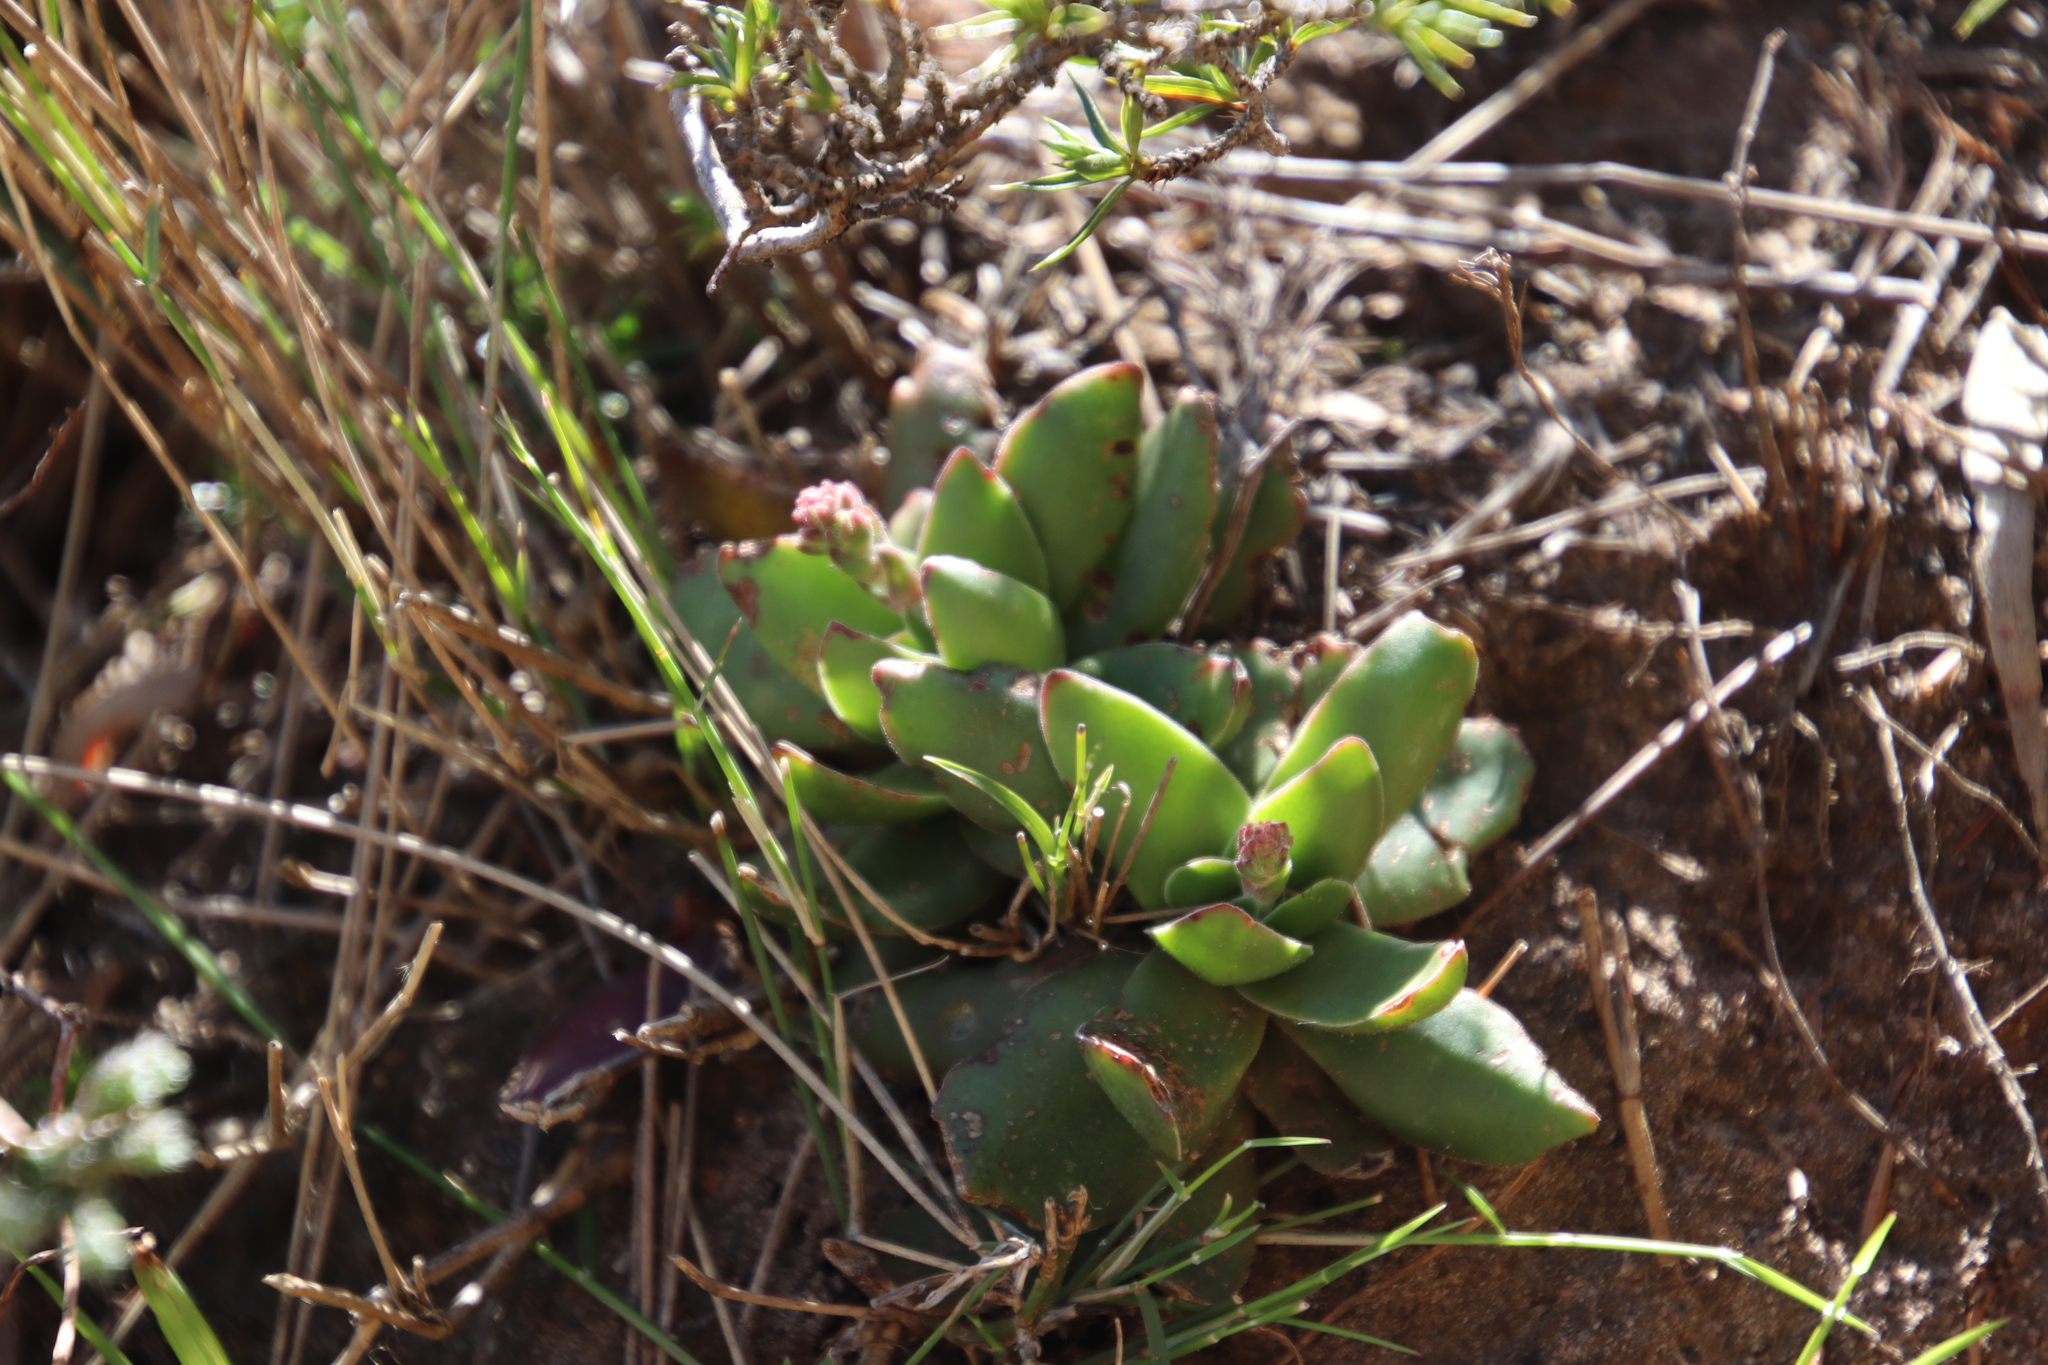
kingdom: Plantae
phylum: Tracheophyta
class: Magnoliopsida
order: Saxifragales
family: Crassulaceae
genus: Crassula
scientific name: Crassula nudicaulis
